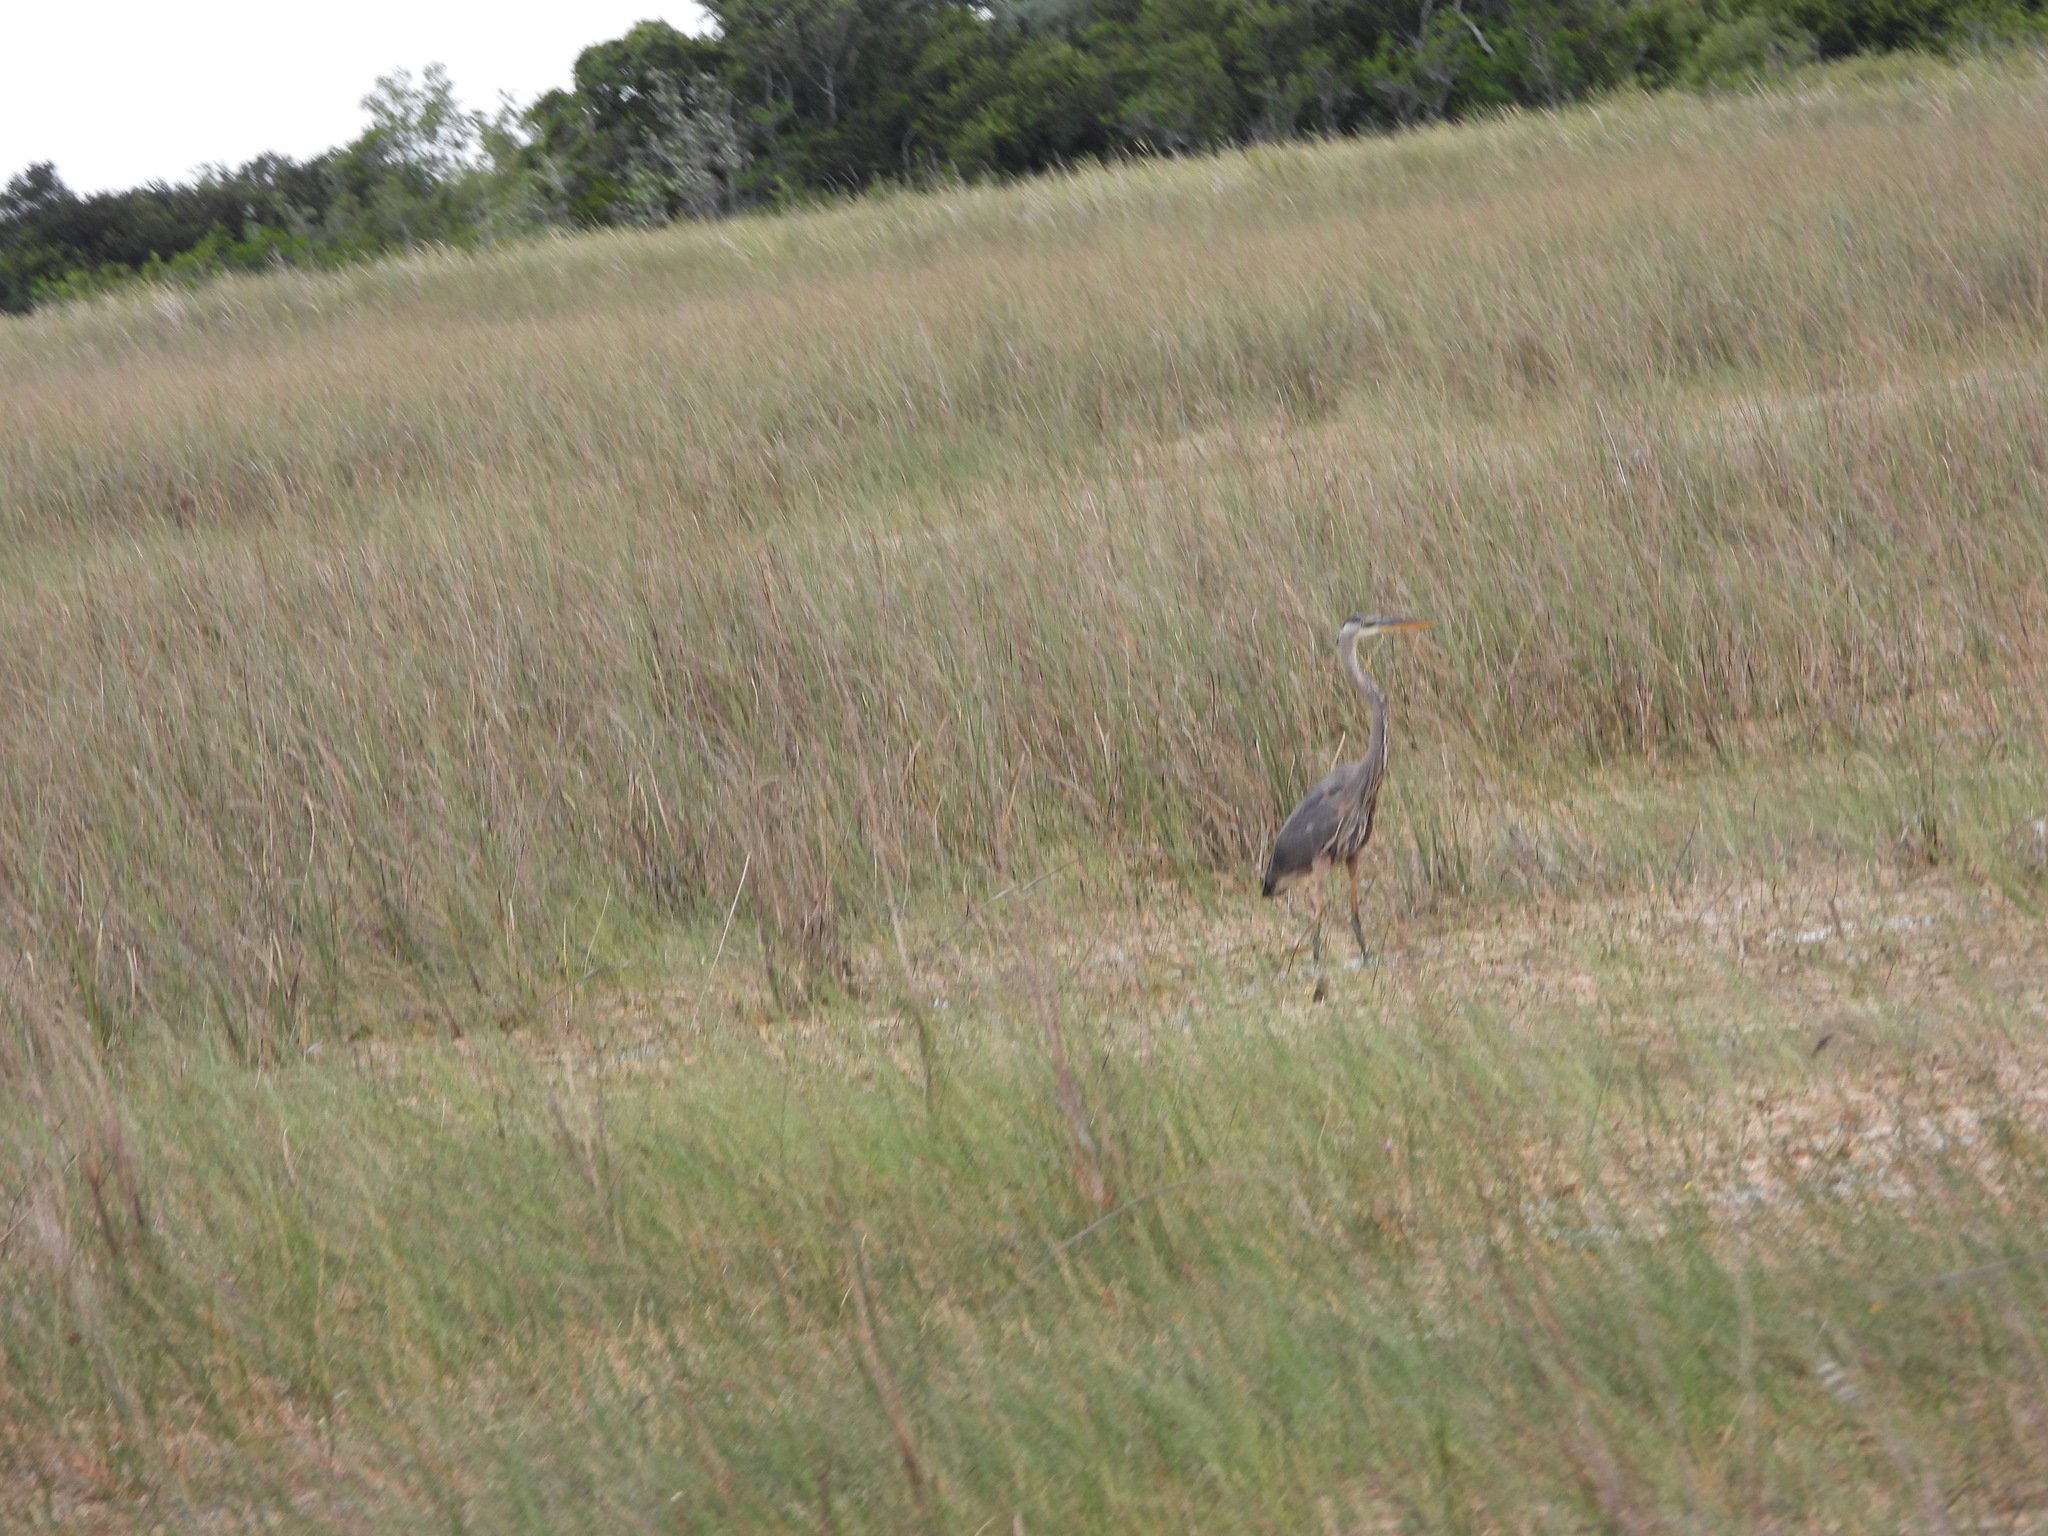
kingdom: Animalia
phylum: Chordata
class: Aves
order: Pelecaniformes
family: Ardeidae
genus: Ardea
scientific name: Ardea herodias
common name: Great blue heron
